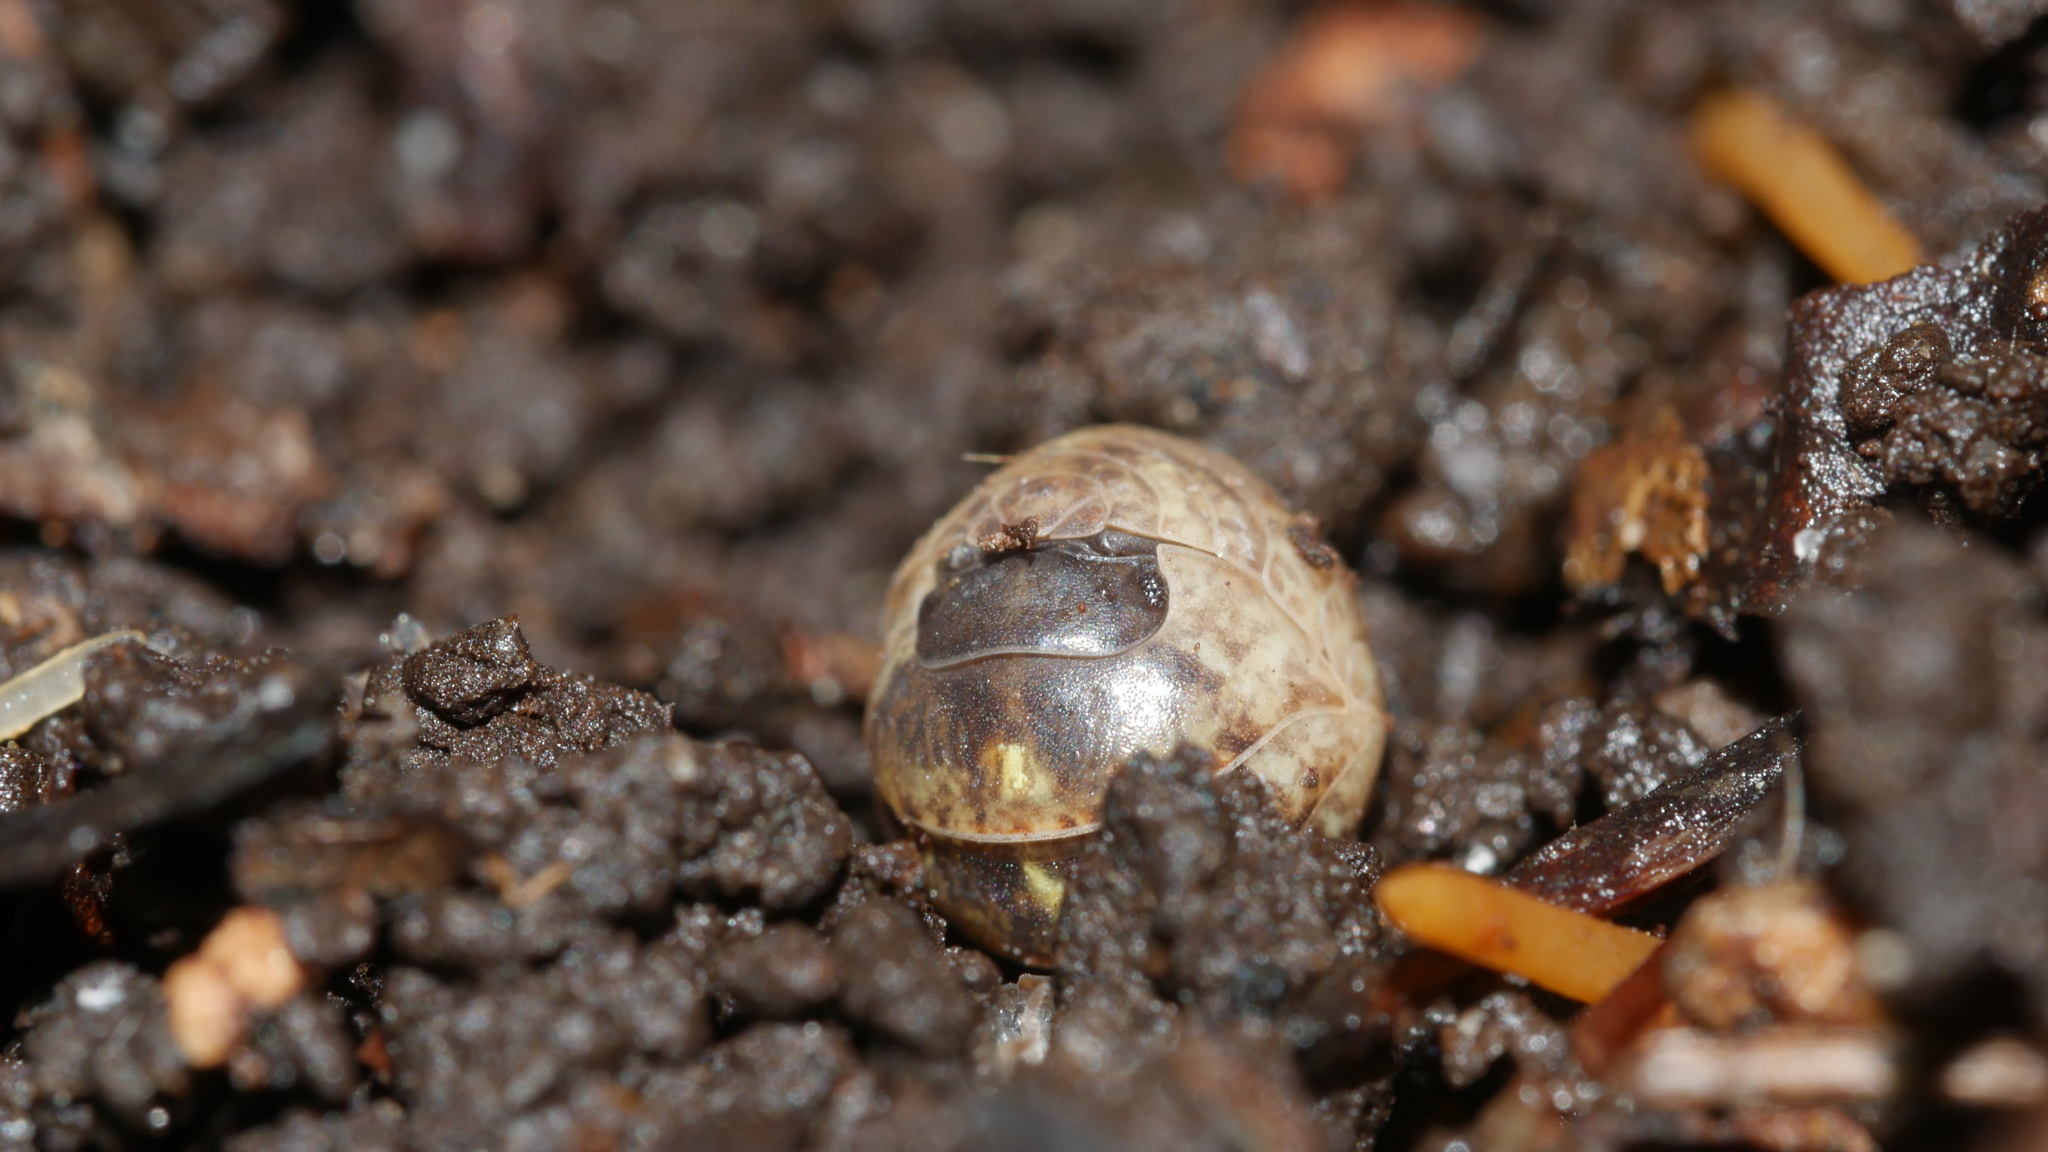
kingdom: Animalia
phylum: Arthropoda
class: Malacostraca
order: Isopoda
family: Armadillidiidae
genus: Armadillidium
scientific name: Armadillidium vulgare
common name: Common pill woodlouse
